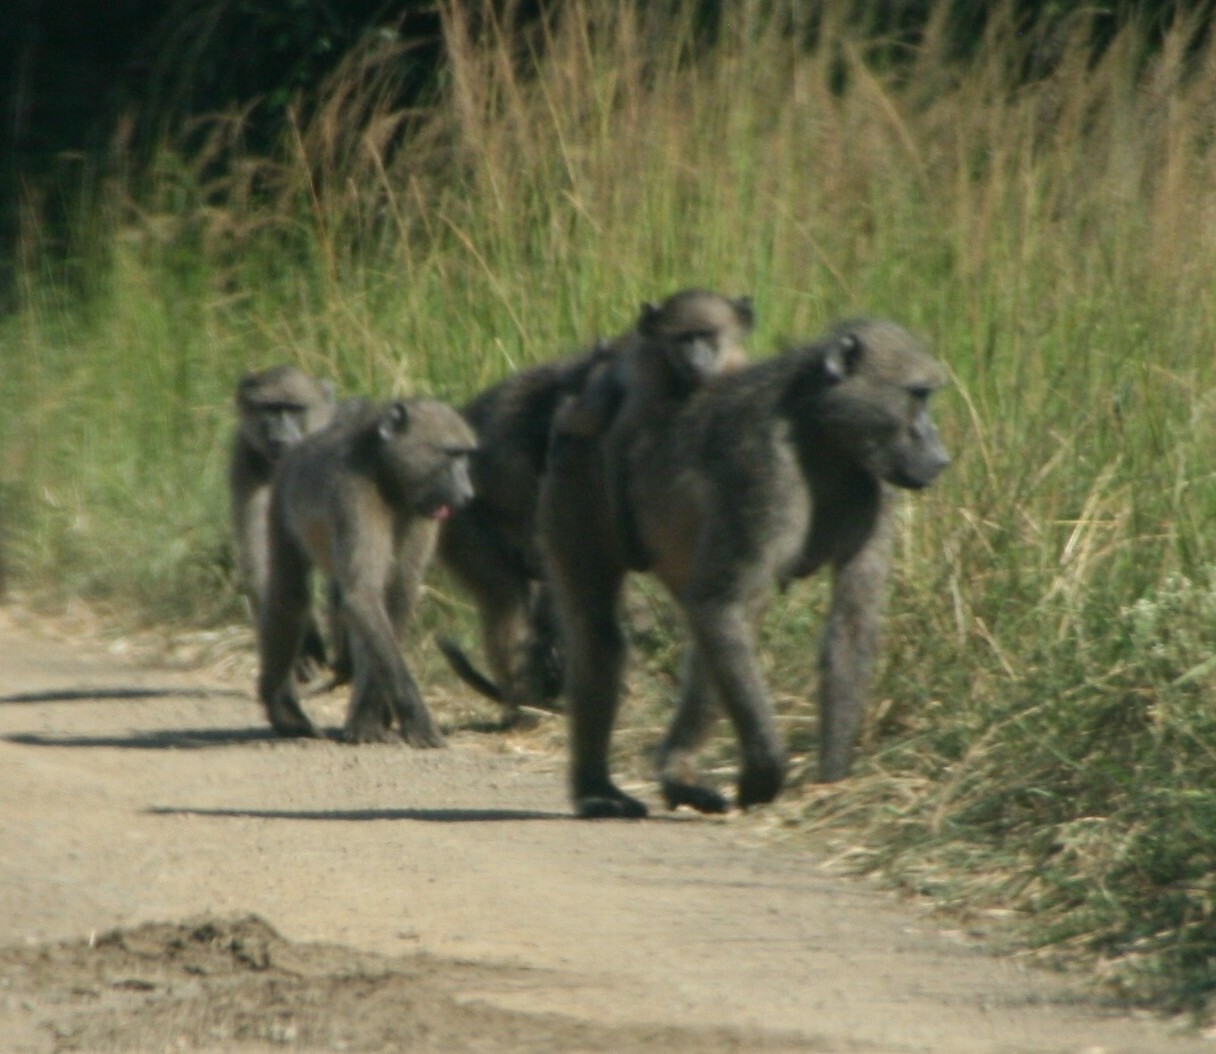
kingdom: Animalia
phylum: Chordata
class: Mammalia
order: Primates
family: Cercopithecidae
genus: Papio
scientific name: Papio ursinus
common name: Chacma baboon
